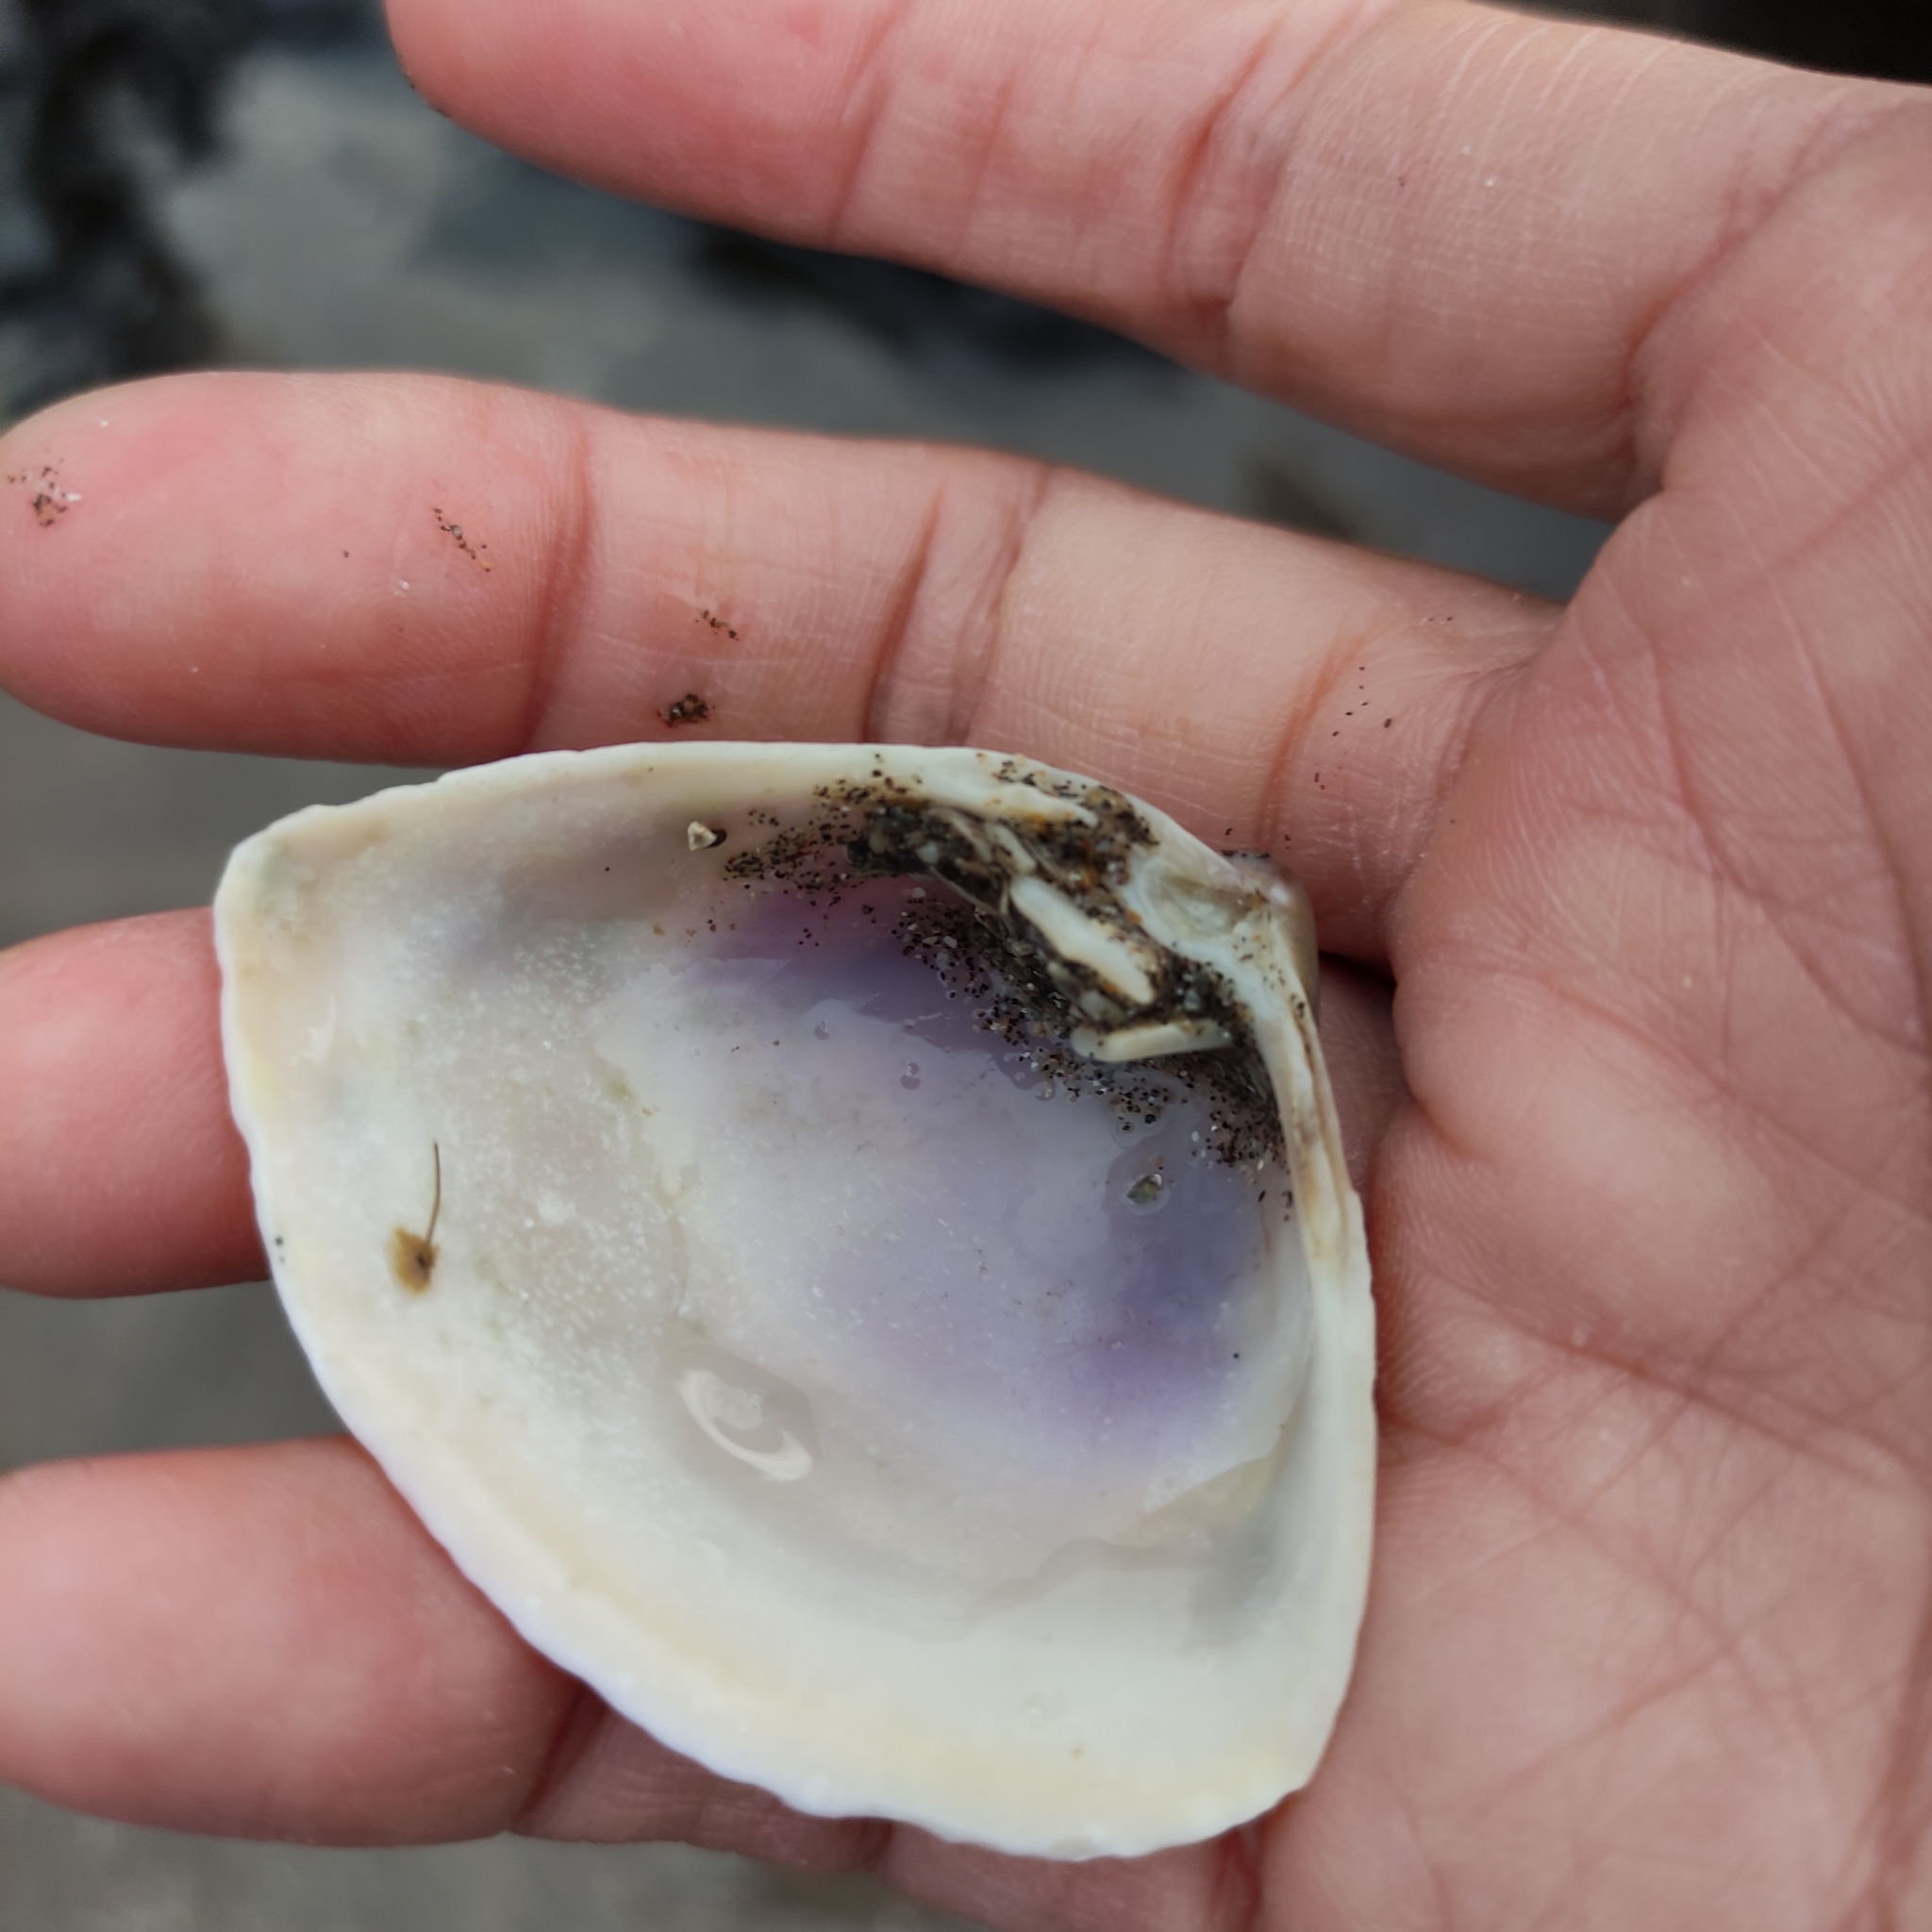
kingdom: Animalia
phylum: Mollusca
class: Bivalvia
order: Venerida
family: Mactridae
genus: Crassula
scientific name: Crassula aequilatera
